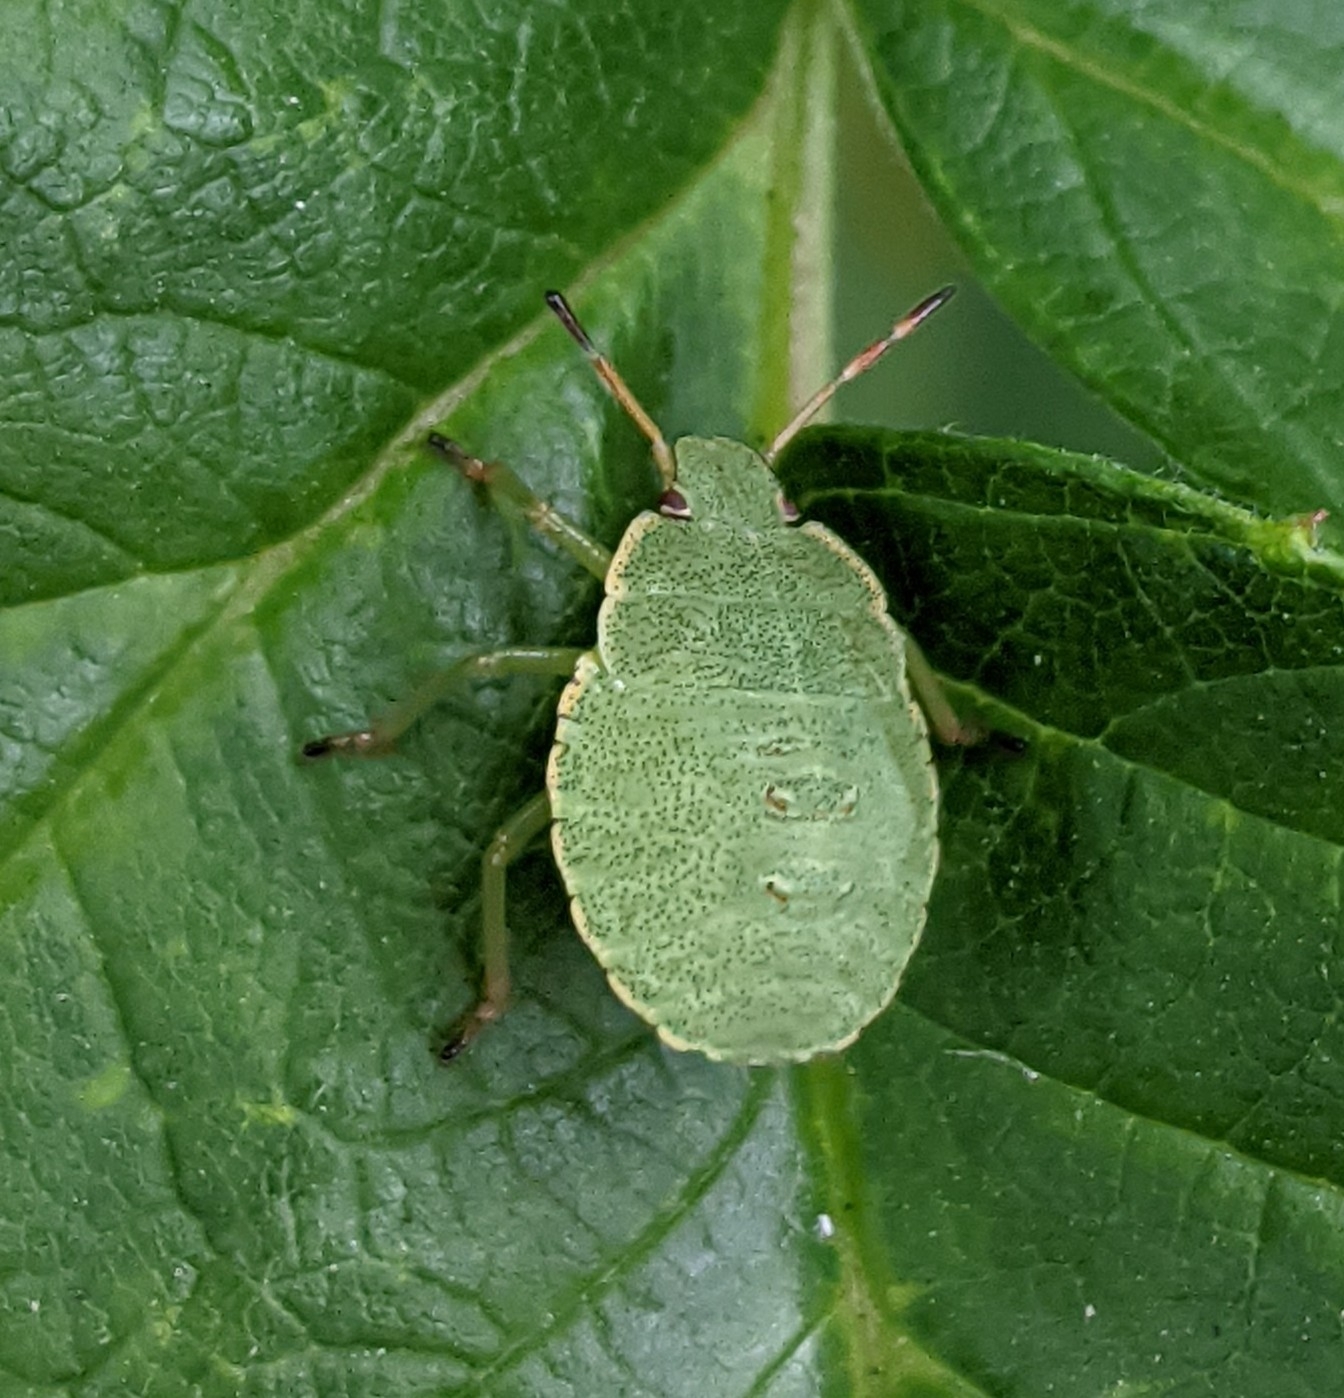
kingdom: Animalia
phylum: Arthropoda
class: Insecta
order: Hemiptera
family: Pentatomidae
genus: Palomena
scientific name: Palomena prasina
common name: Green shieldbug
